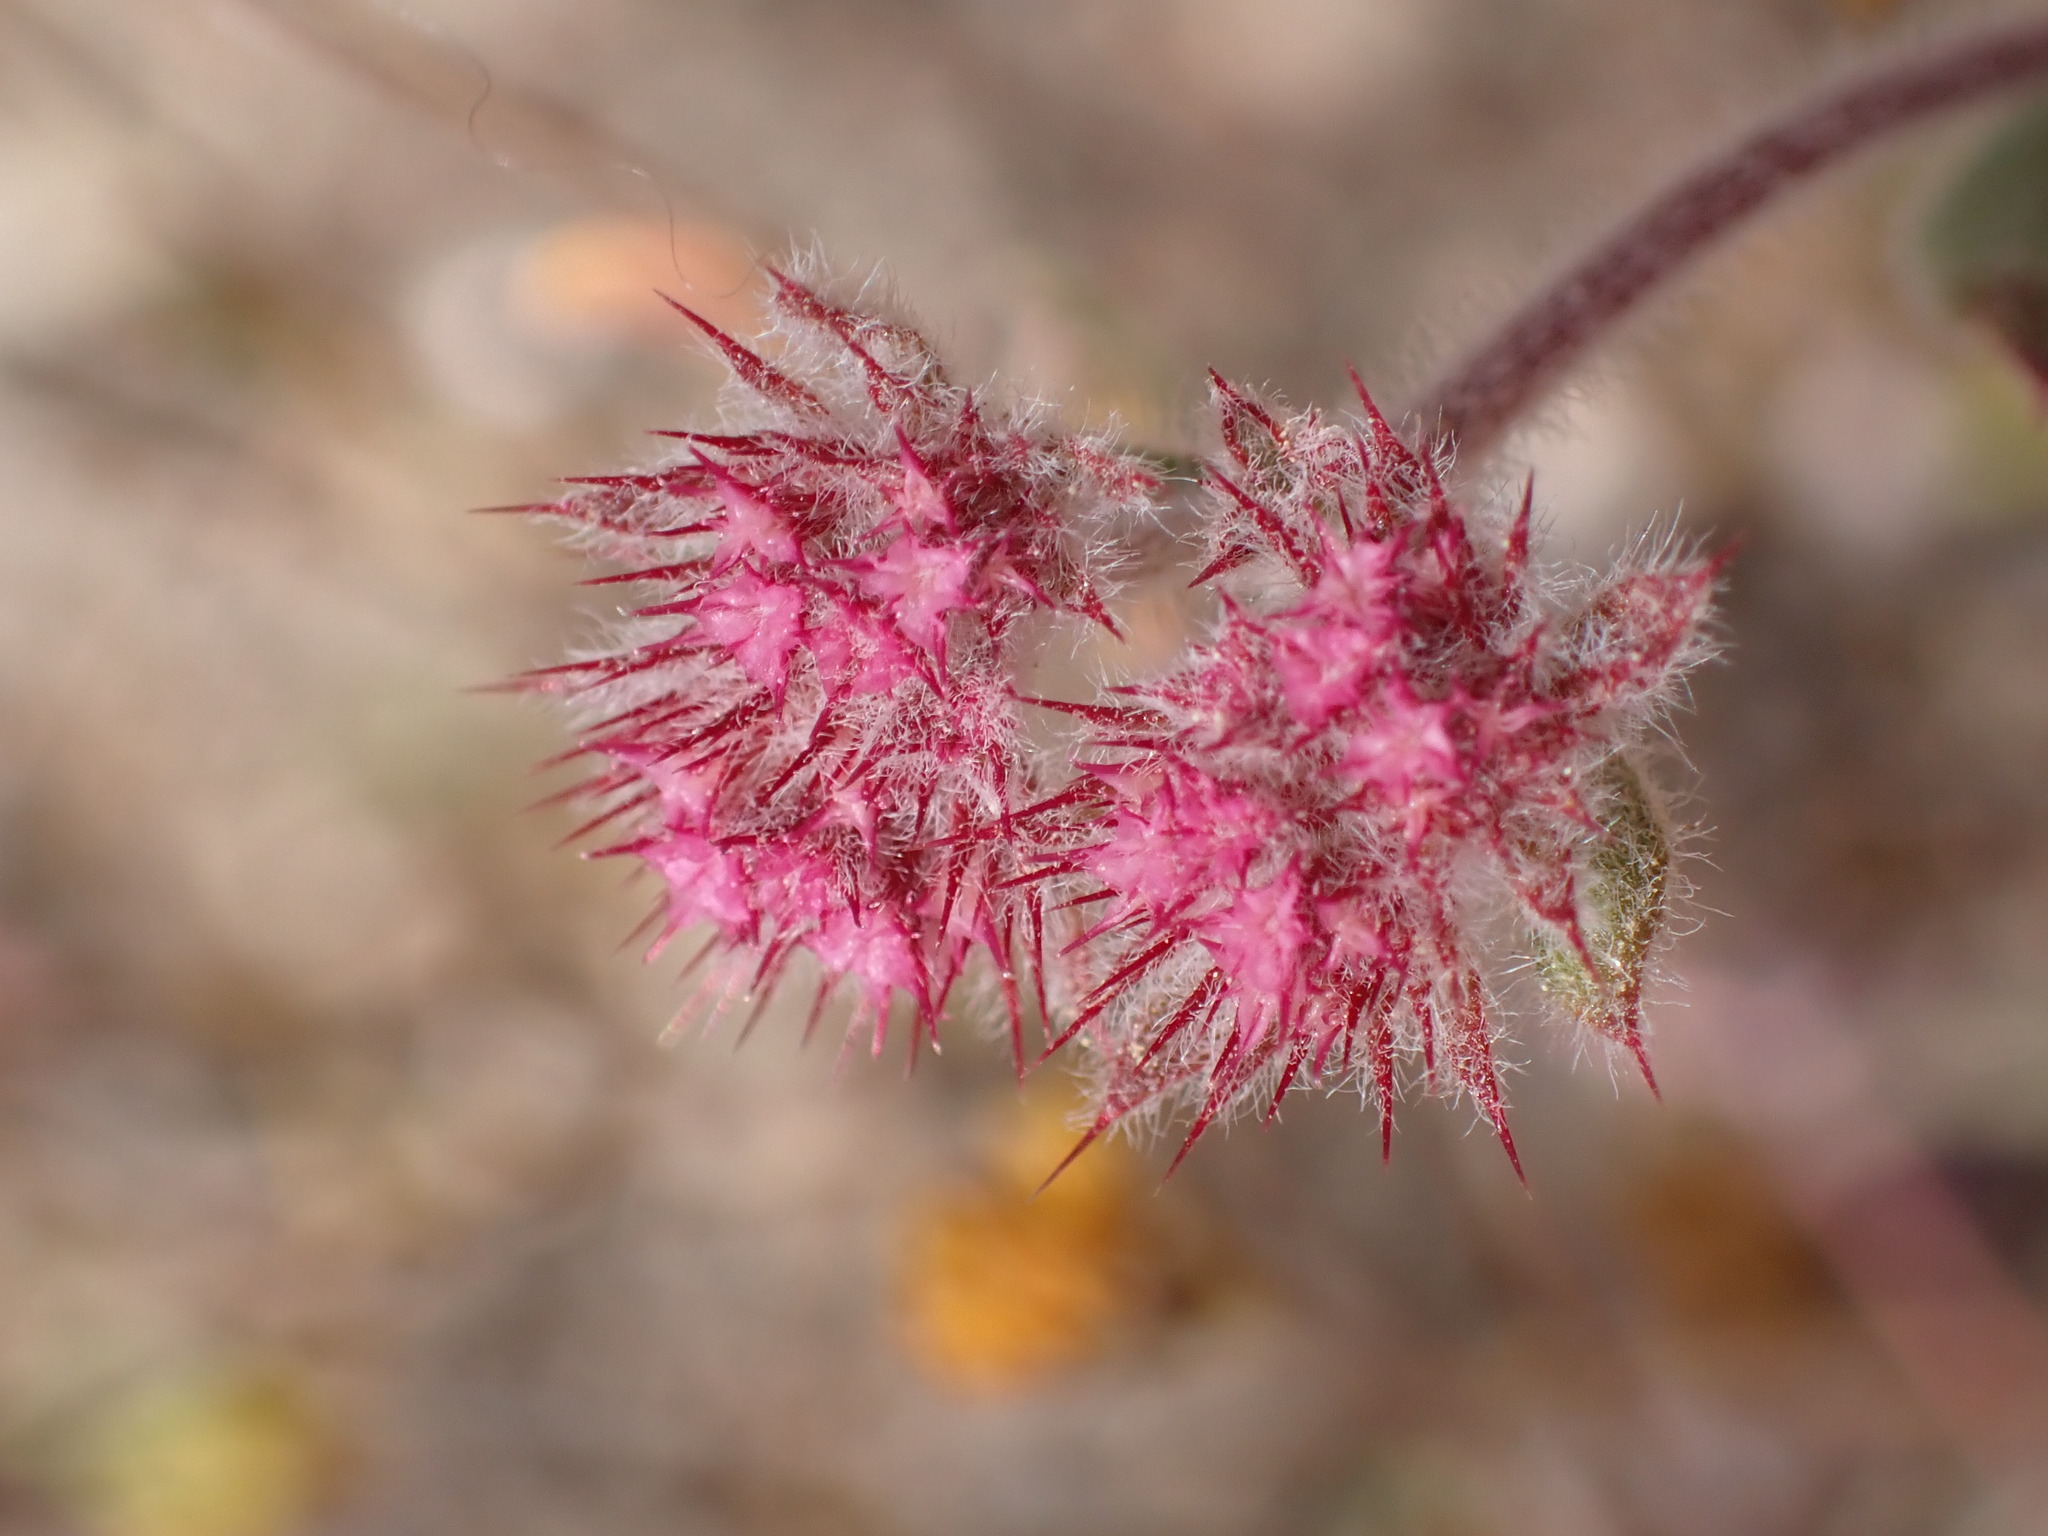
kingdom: Plantae
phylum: Tracheophyta
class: Magnoliopsida
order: Caryophyllales
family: Polygonaceae
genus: Chorizanthe
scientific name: Chorizanthe douglasii
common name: Douglas's spineflower
